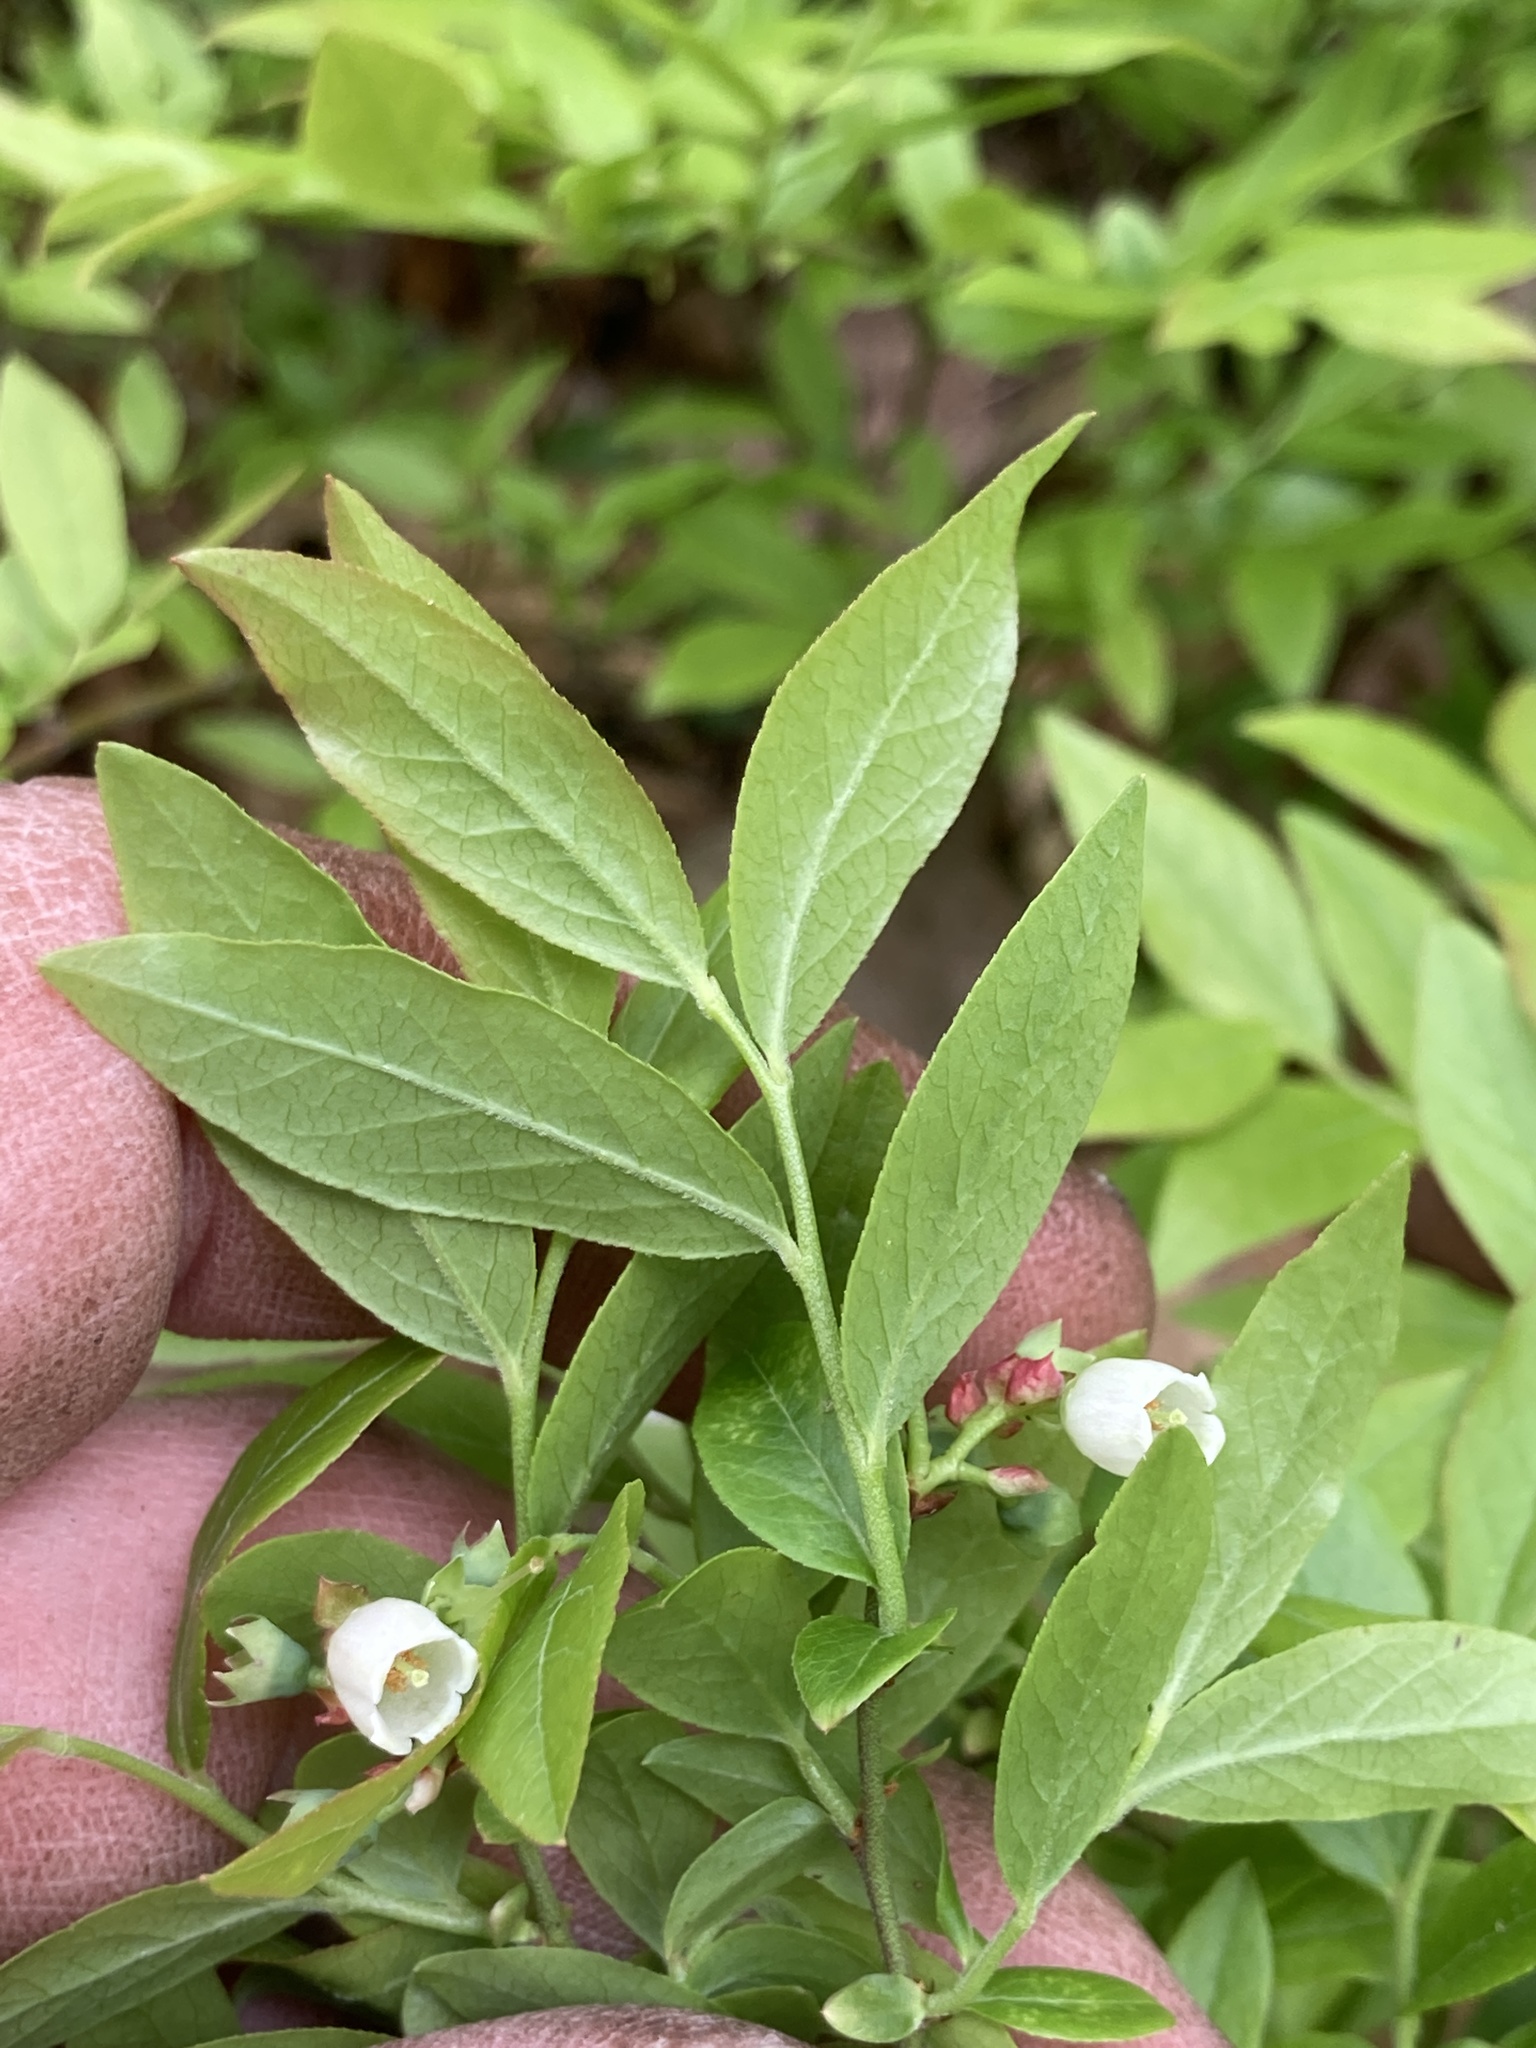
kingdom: Plantae
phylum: Tracheophyta
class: Magnoliopsida
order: Ericales
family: Ericaceae
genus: Vaccinium
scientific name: Vaccinium angustifolium
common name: Early lowbush blueberry
